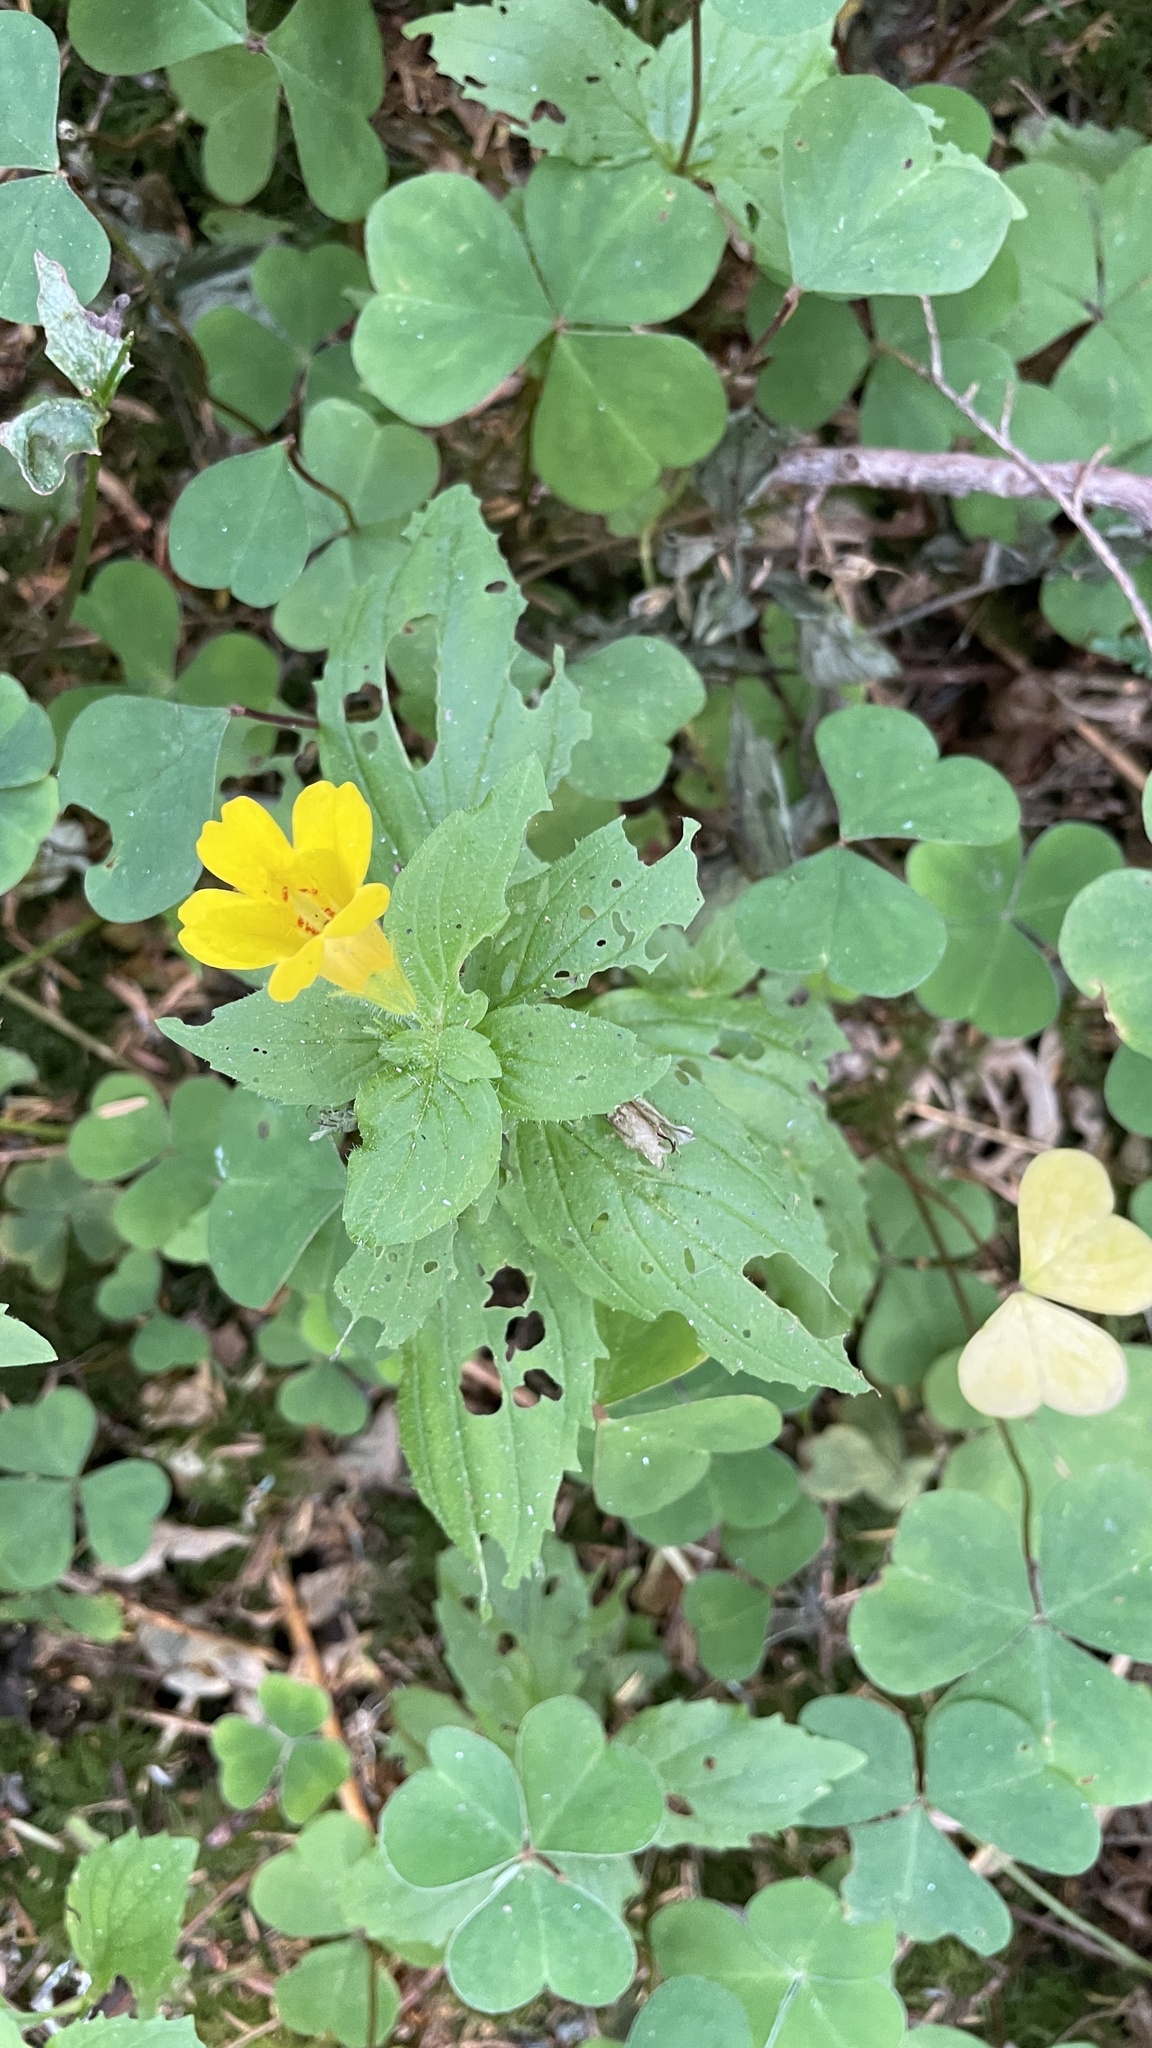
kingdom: Plantae
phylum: Tracheophyta
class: Magnoliopsida
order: Lamiales
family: Phrymaceae
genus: Erythranthe
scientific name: Erythranthe dentata
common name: Coastal monkeyflower
